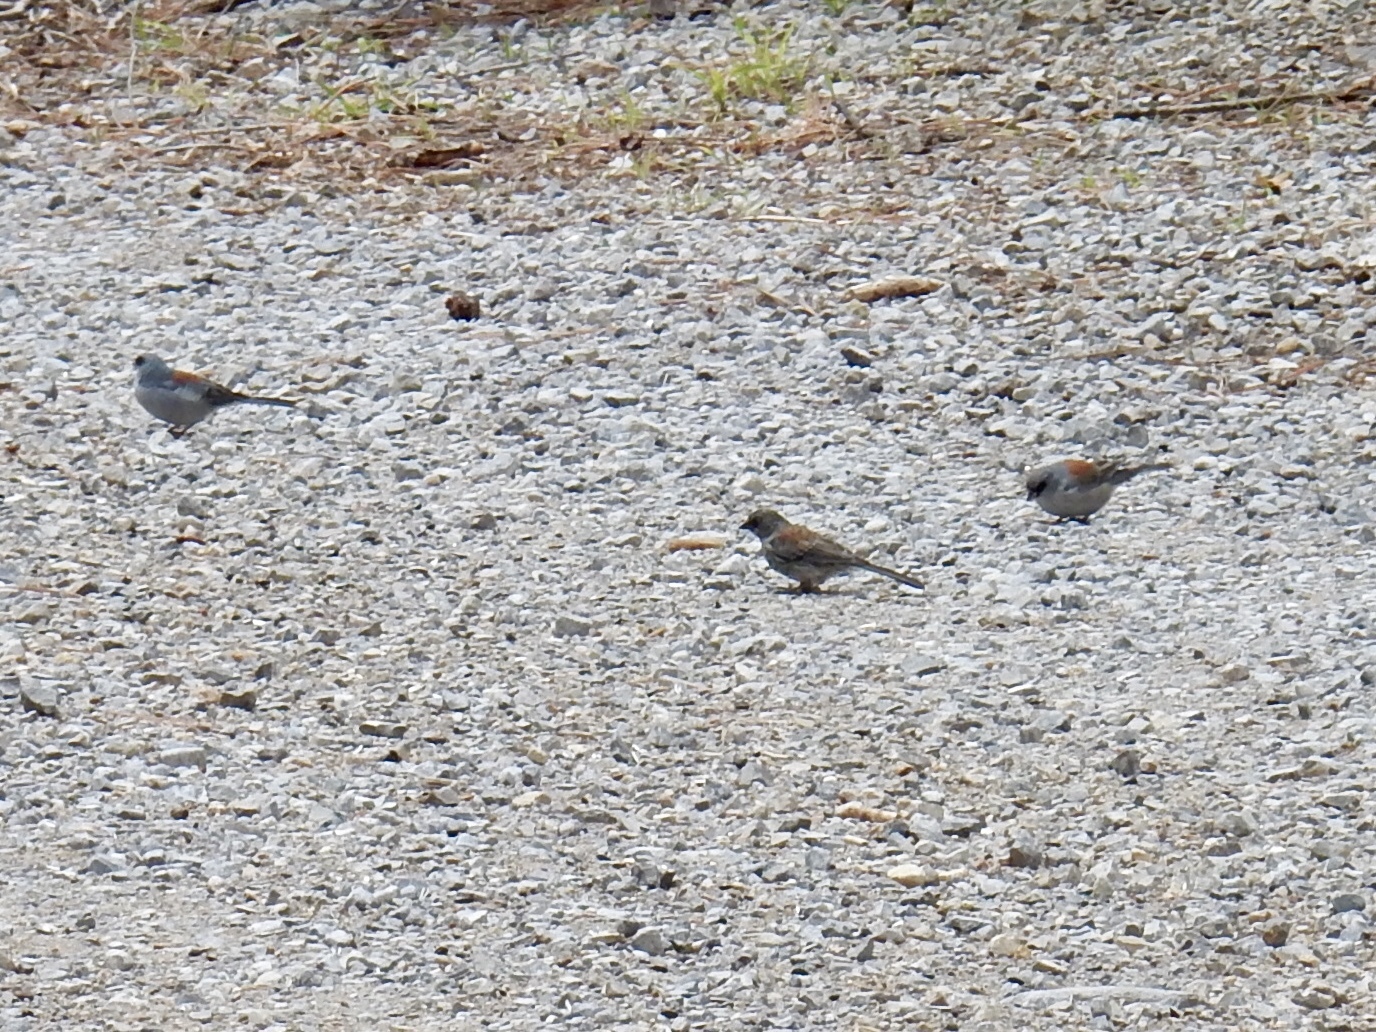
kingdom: Animalia
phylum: Chordata
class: Aves
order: Passeriformes
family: Passerellidae
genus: Junco
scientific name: Junco hyemalis
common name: Dark-eyed junco
